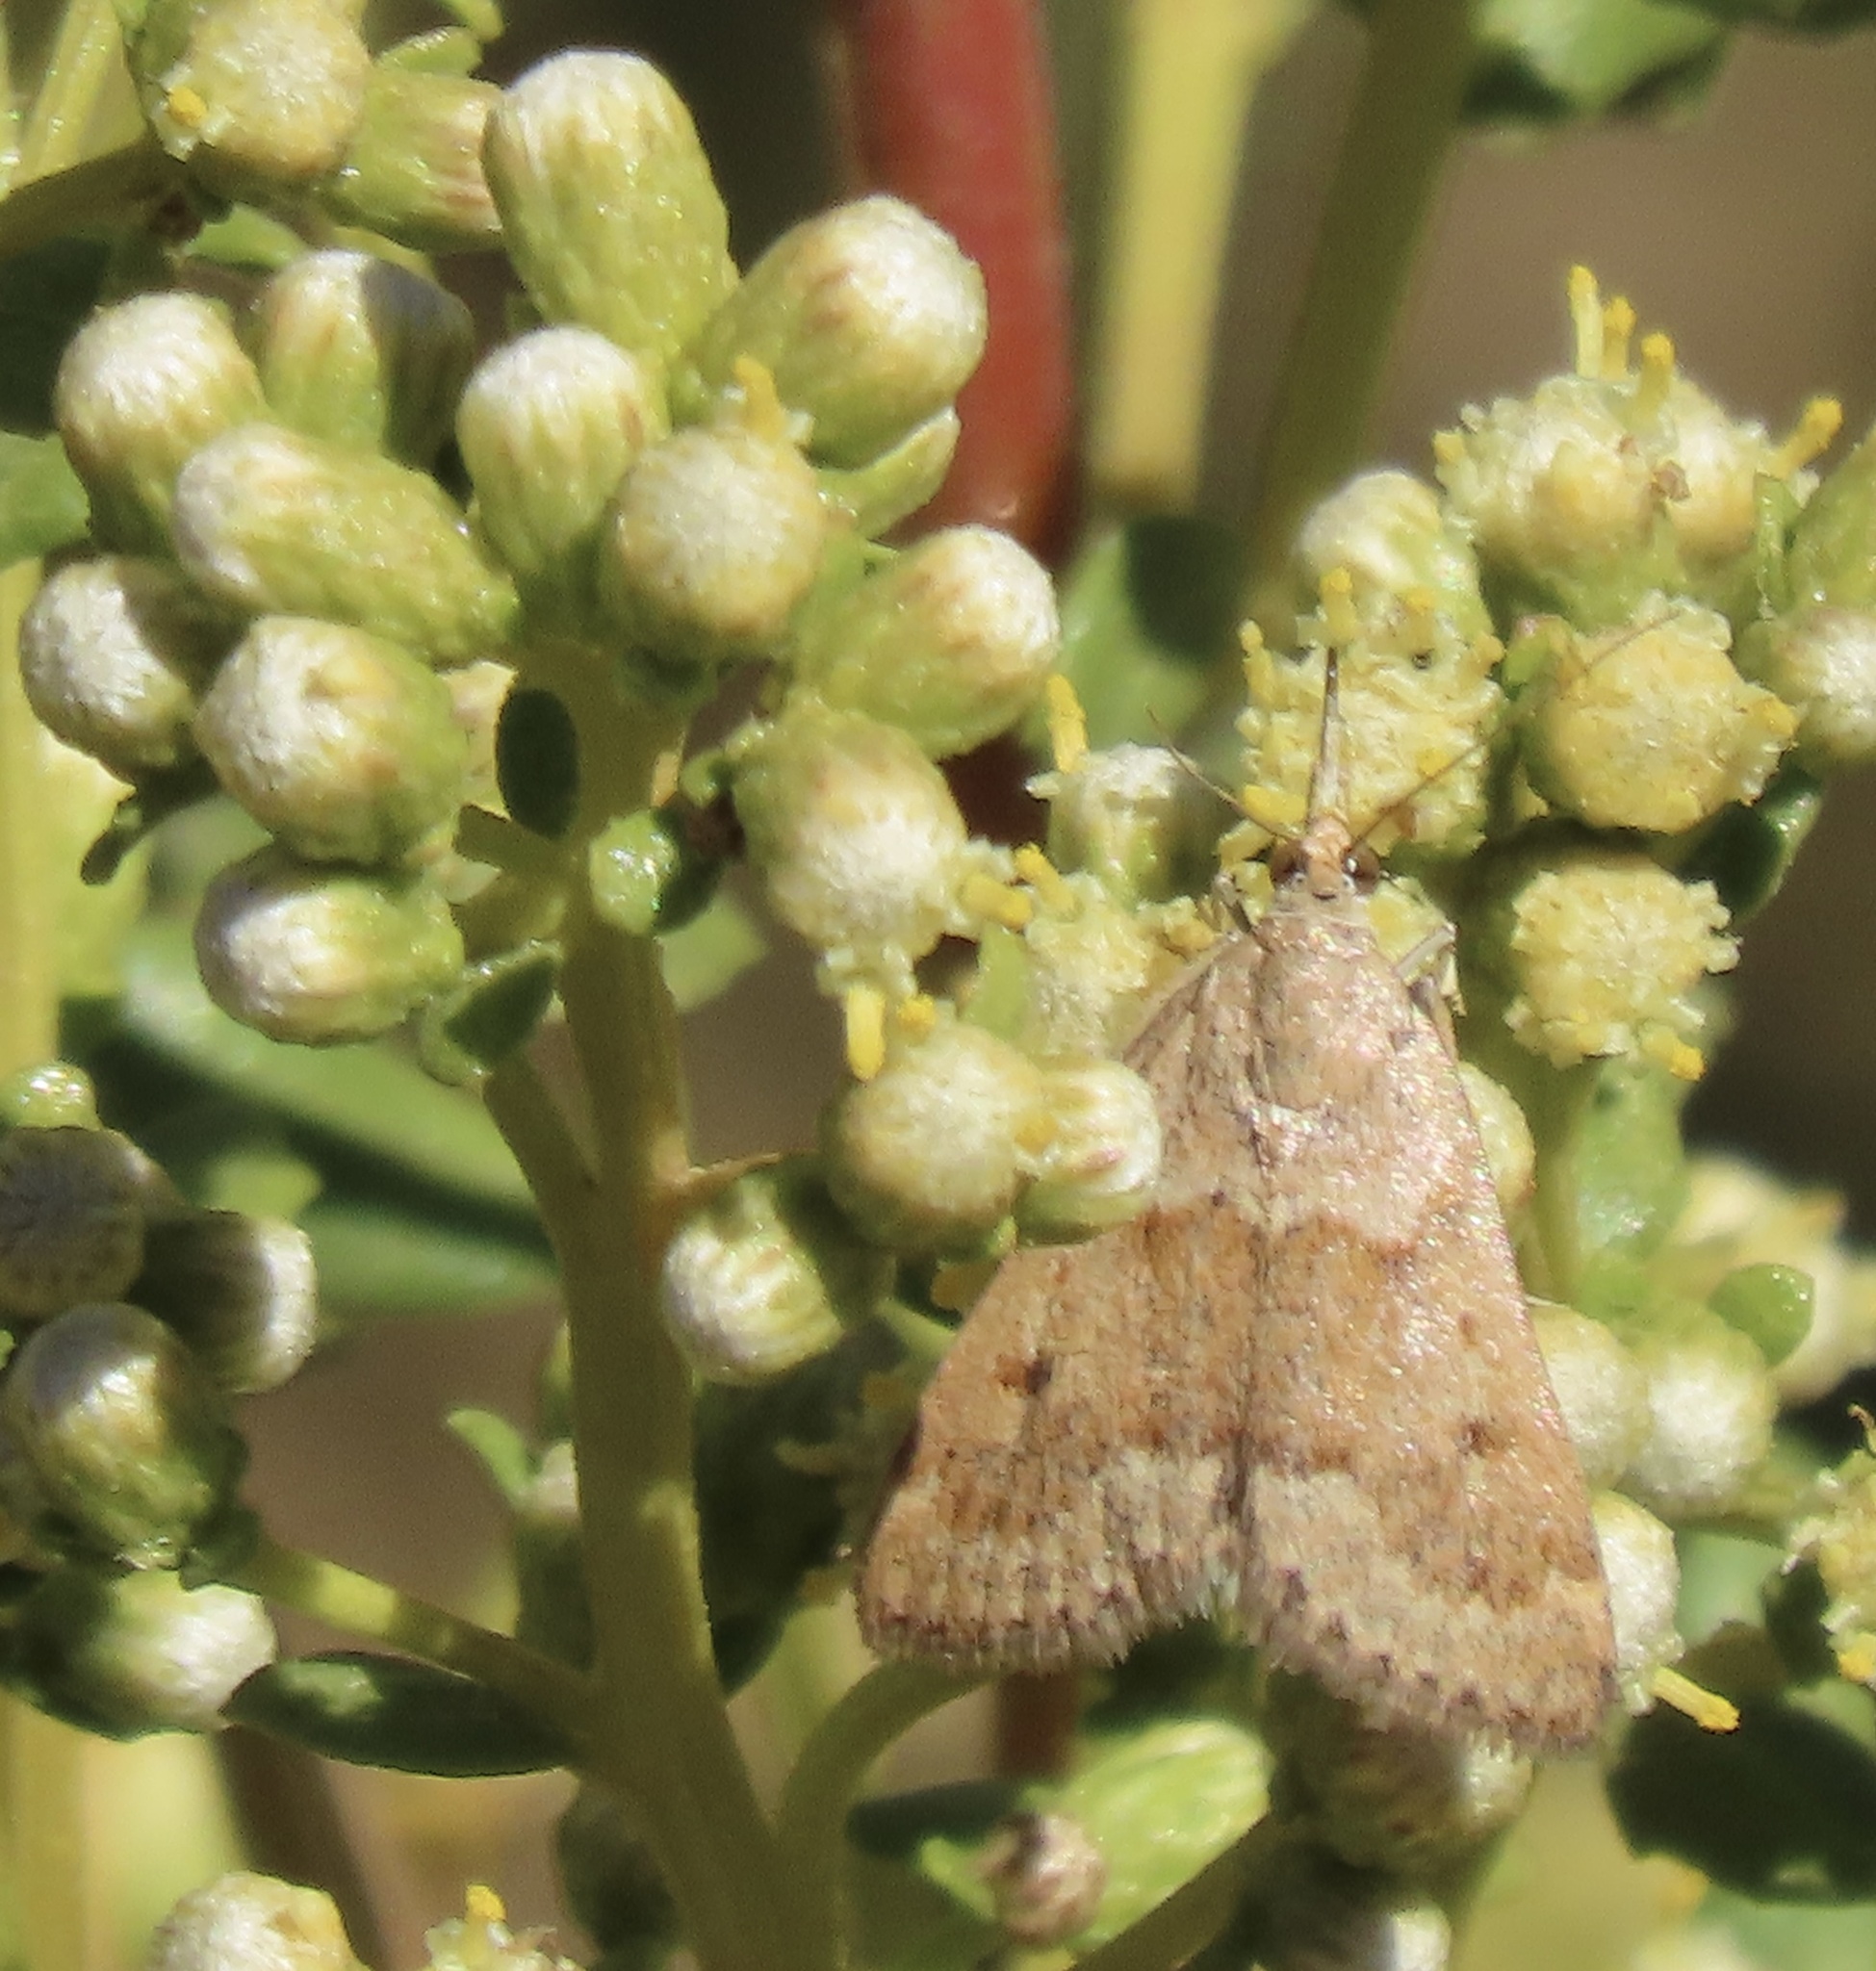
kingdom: Animalia
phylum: Arthropoda
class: Insecta
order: Lepidoptera
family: Crambidae
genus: Achyra
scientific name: Achyra rantalis
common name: Garden webworm
